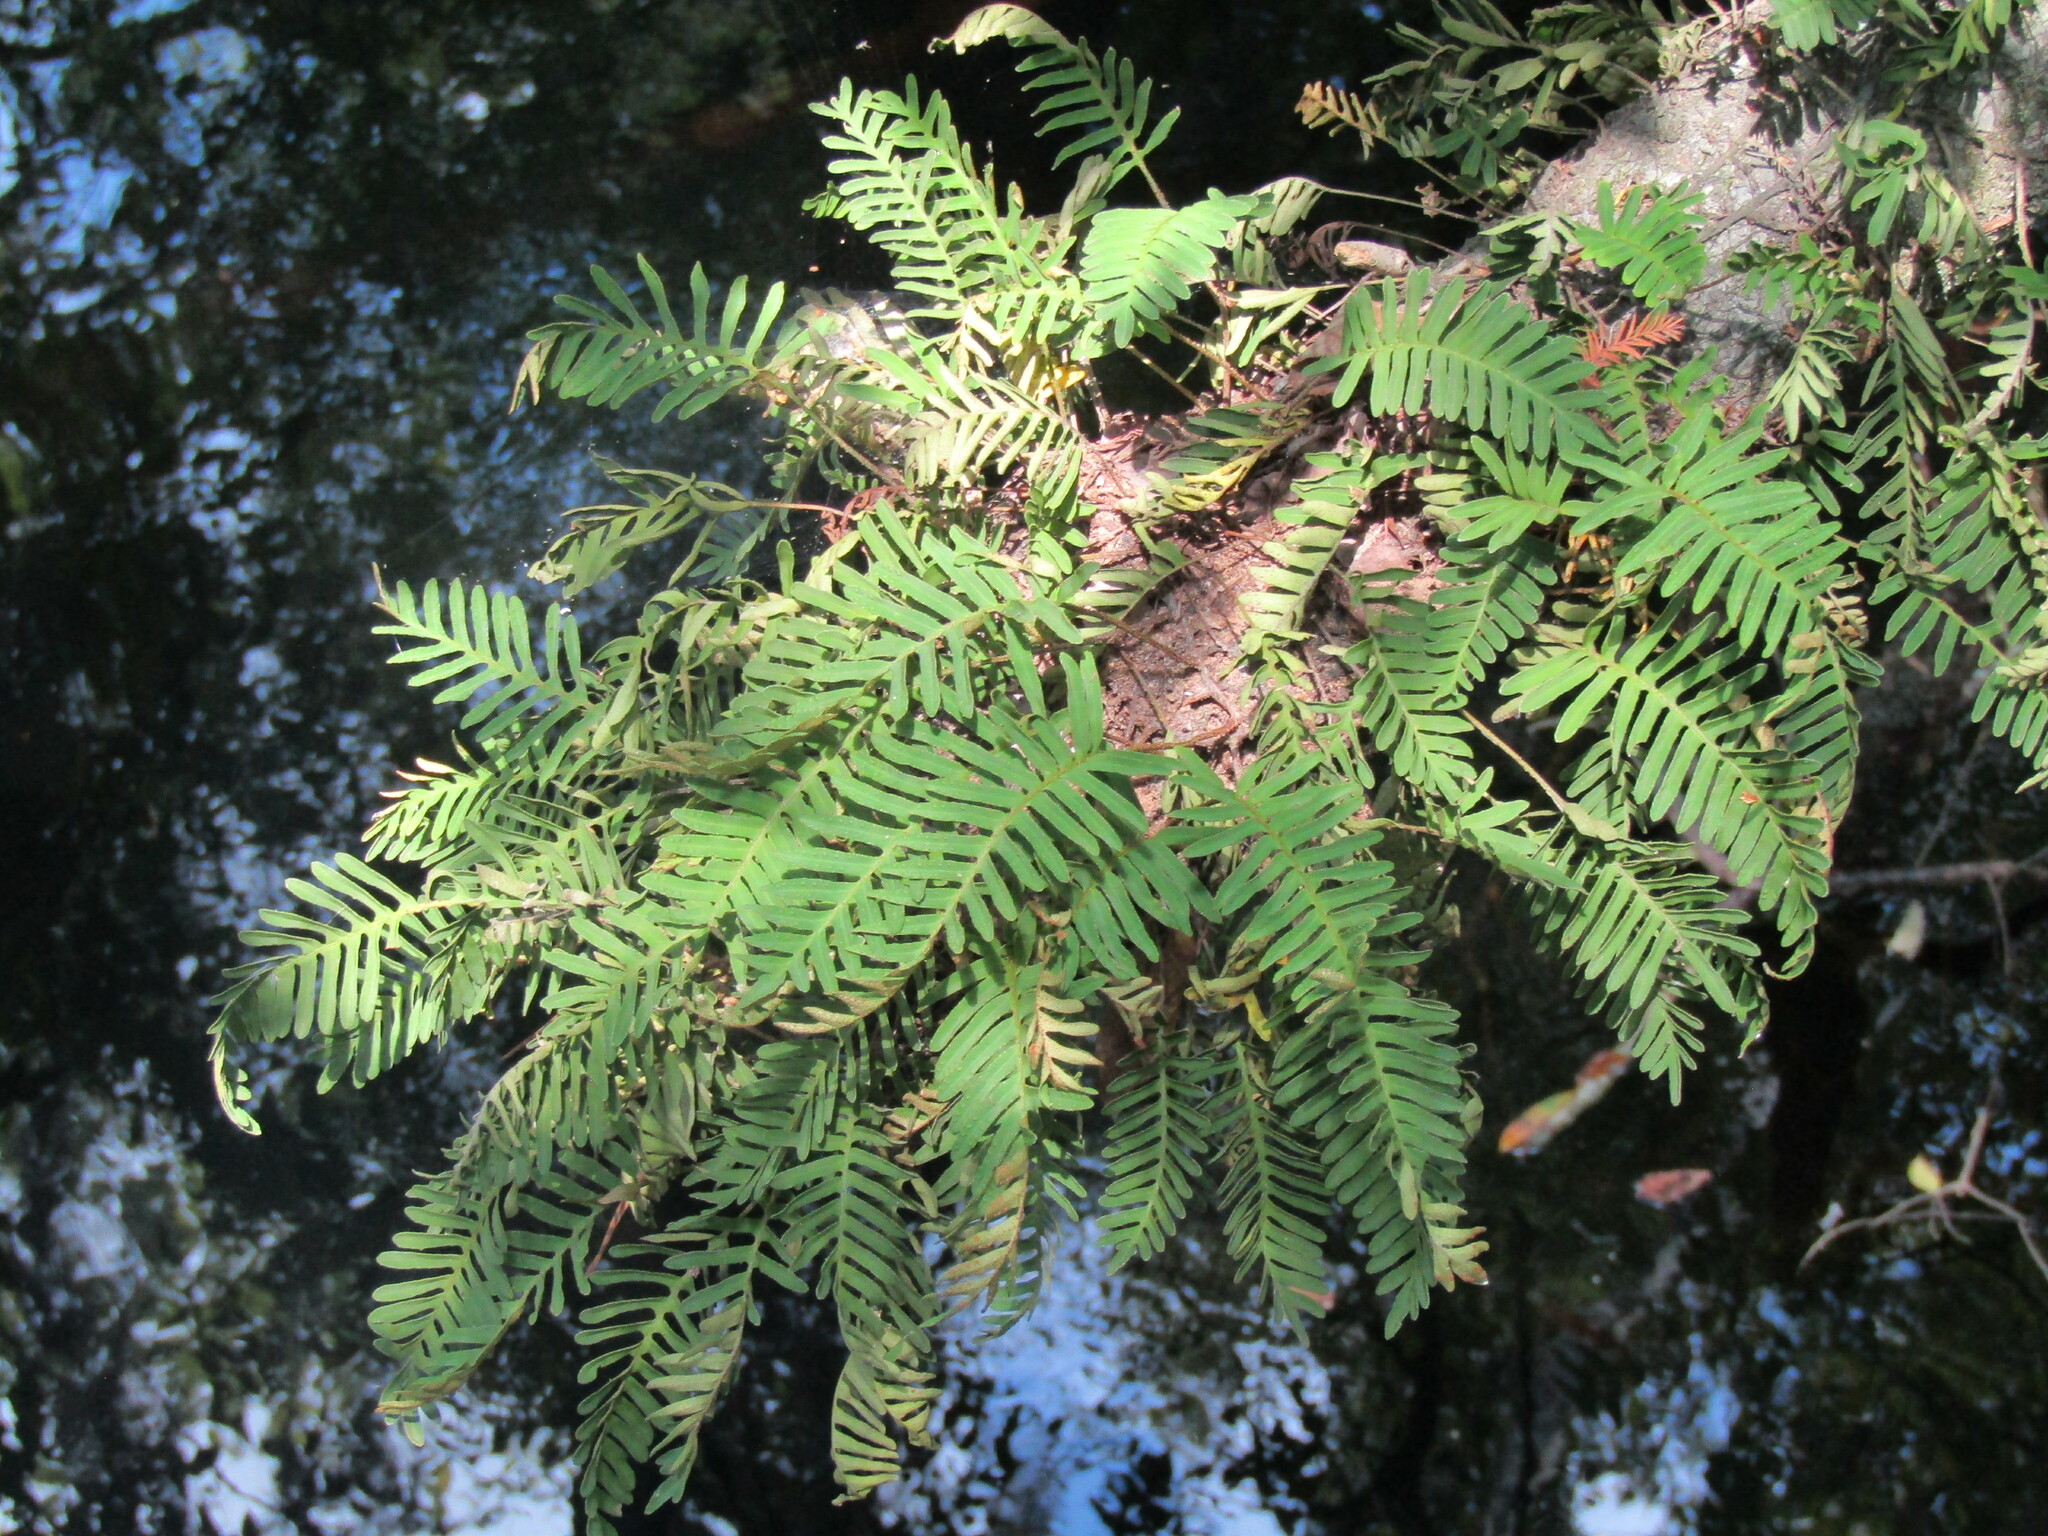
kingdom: Plantae
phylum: Tracheophyta
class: Polypodiopsida
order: Polypodiales
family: Polypodiaceae
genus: Pleopeltis
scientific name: Pleopeltis michauxiana
